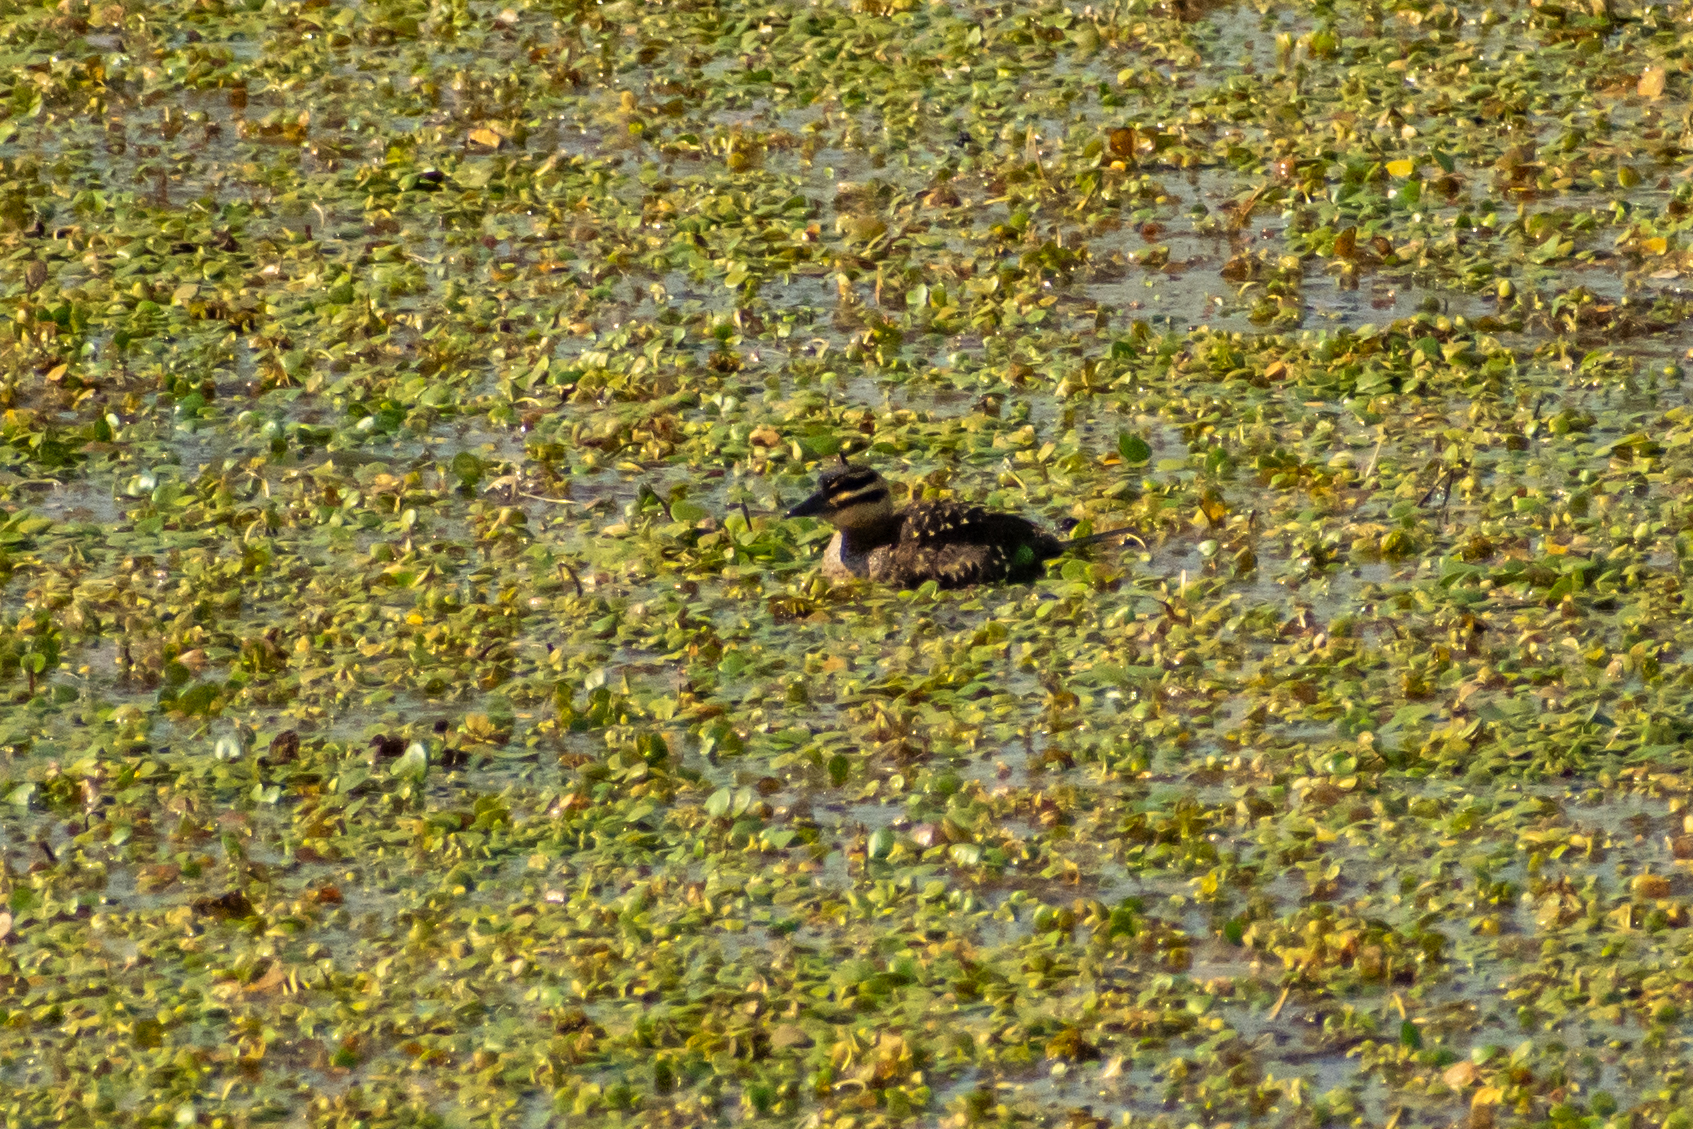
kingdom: Animalia
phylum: Chordata
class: Aves
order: Anseriformes
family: Anatidae
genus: Nomonyx
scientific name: Nomonyx dominicus
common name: Masked duck
